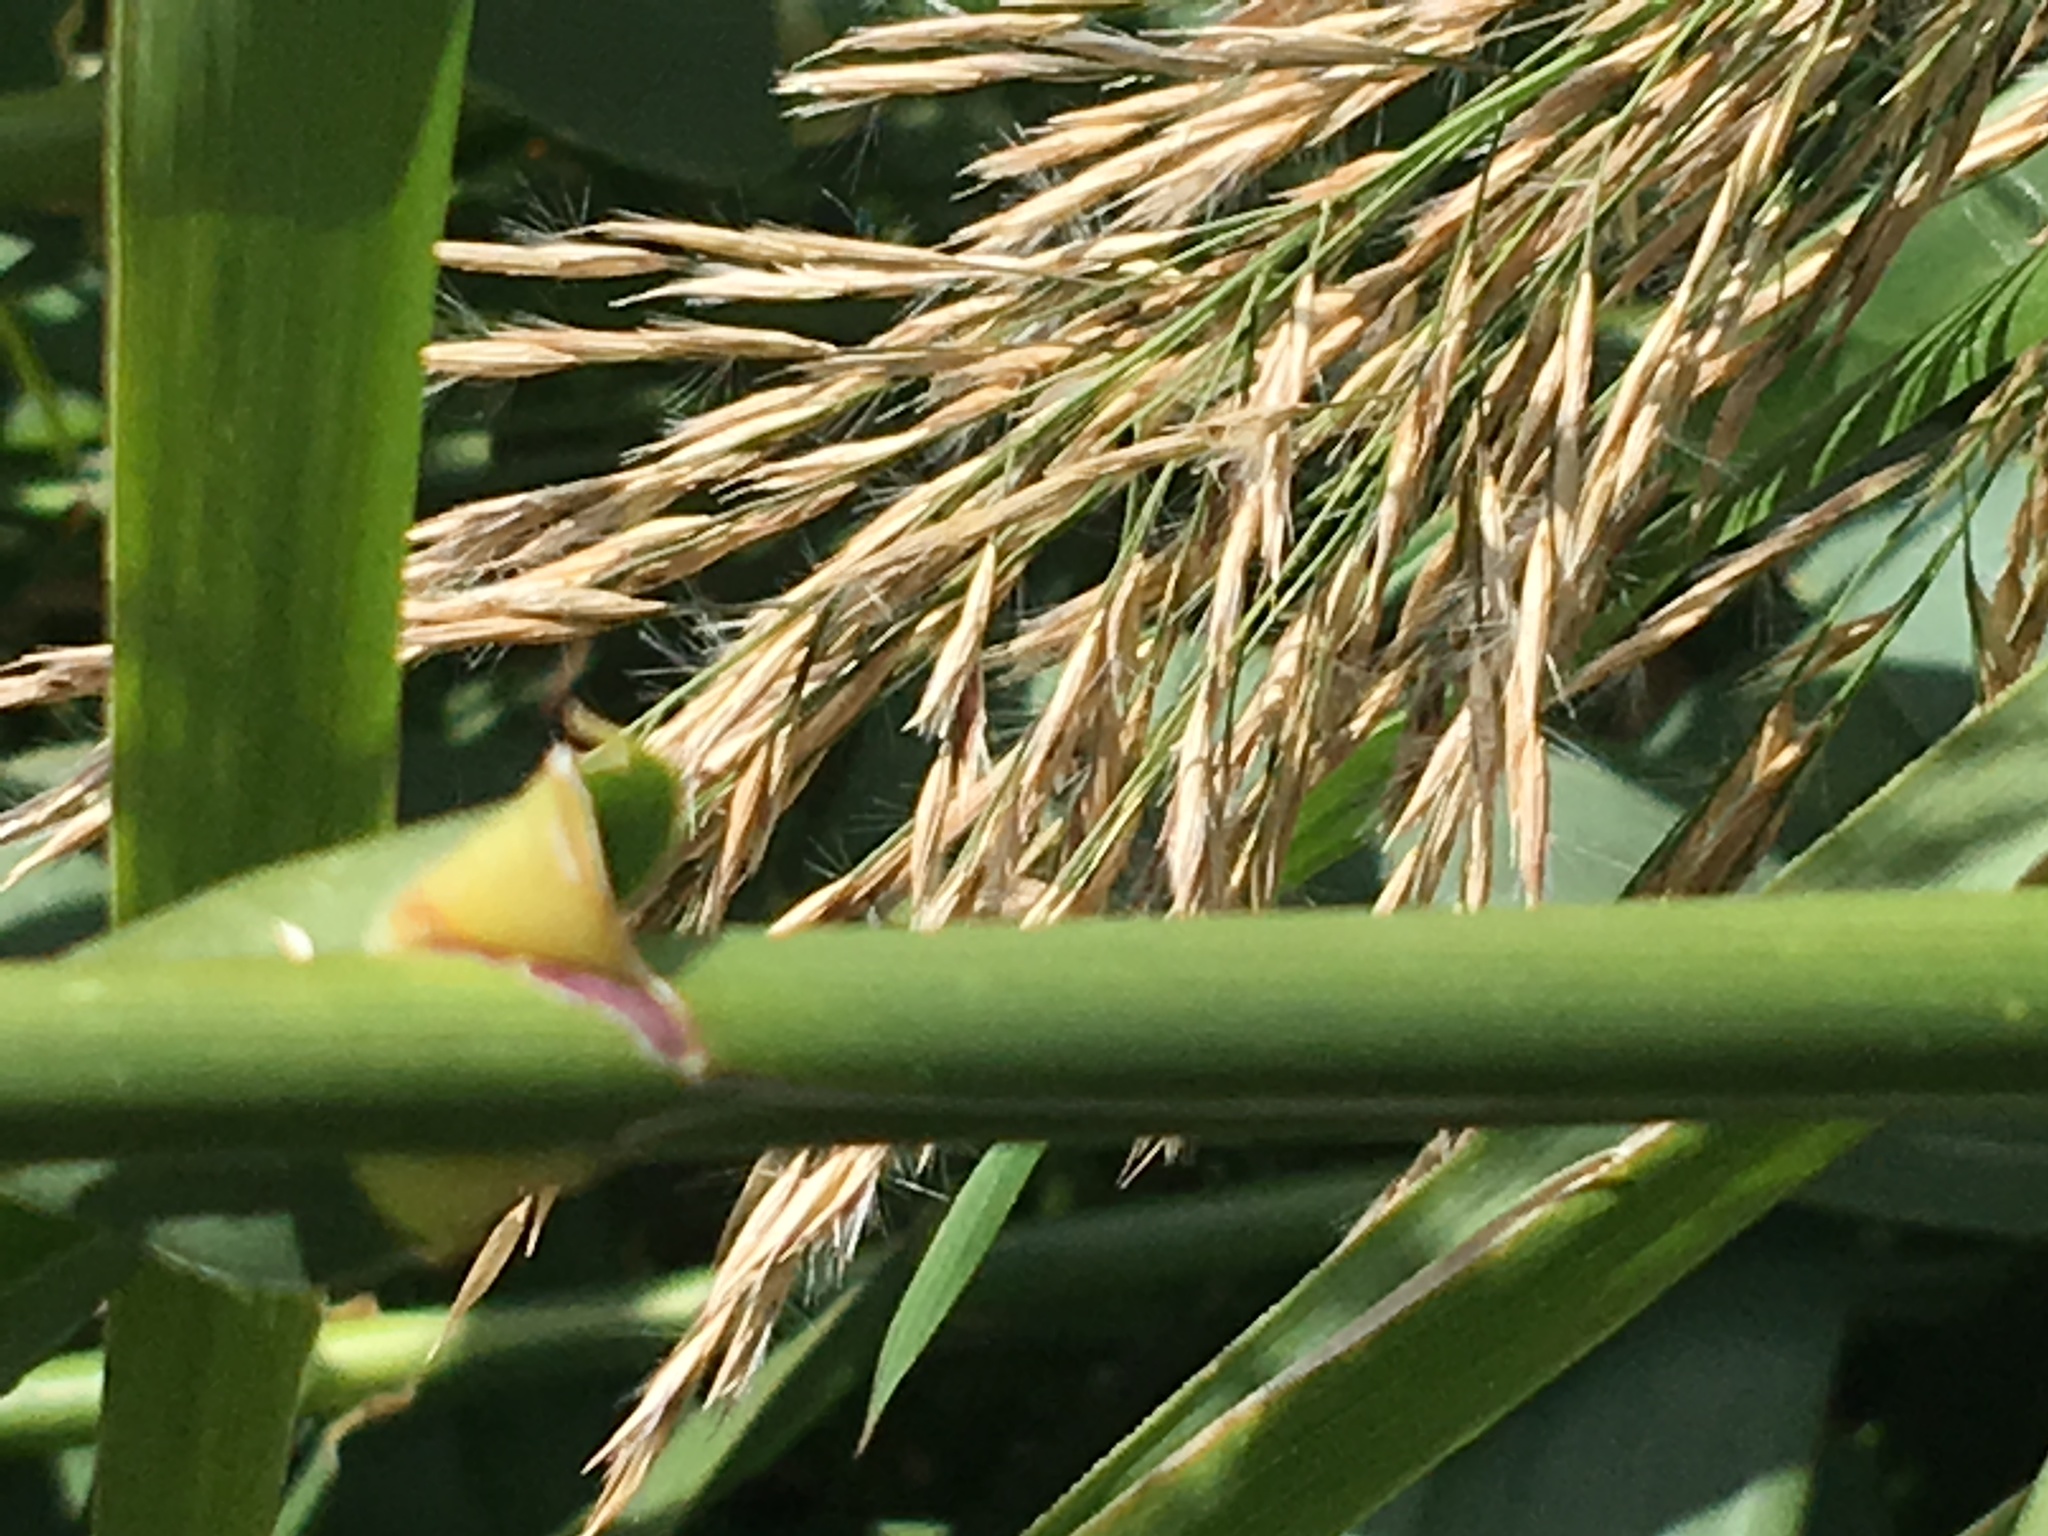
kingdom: Plantae
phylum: Tracheophyta
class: Liliopsida
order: Poales
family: Poaceae
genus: Arundo
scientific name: Arundo donax
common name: Giant reed
